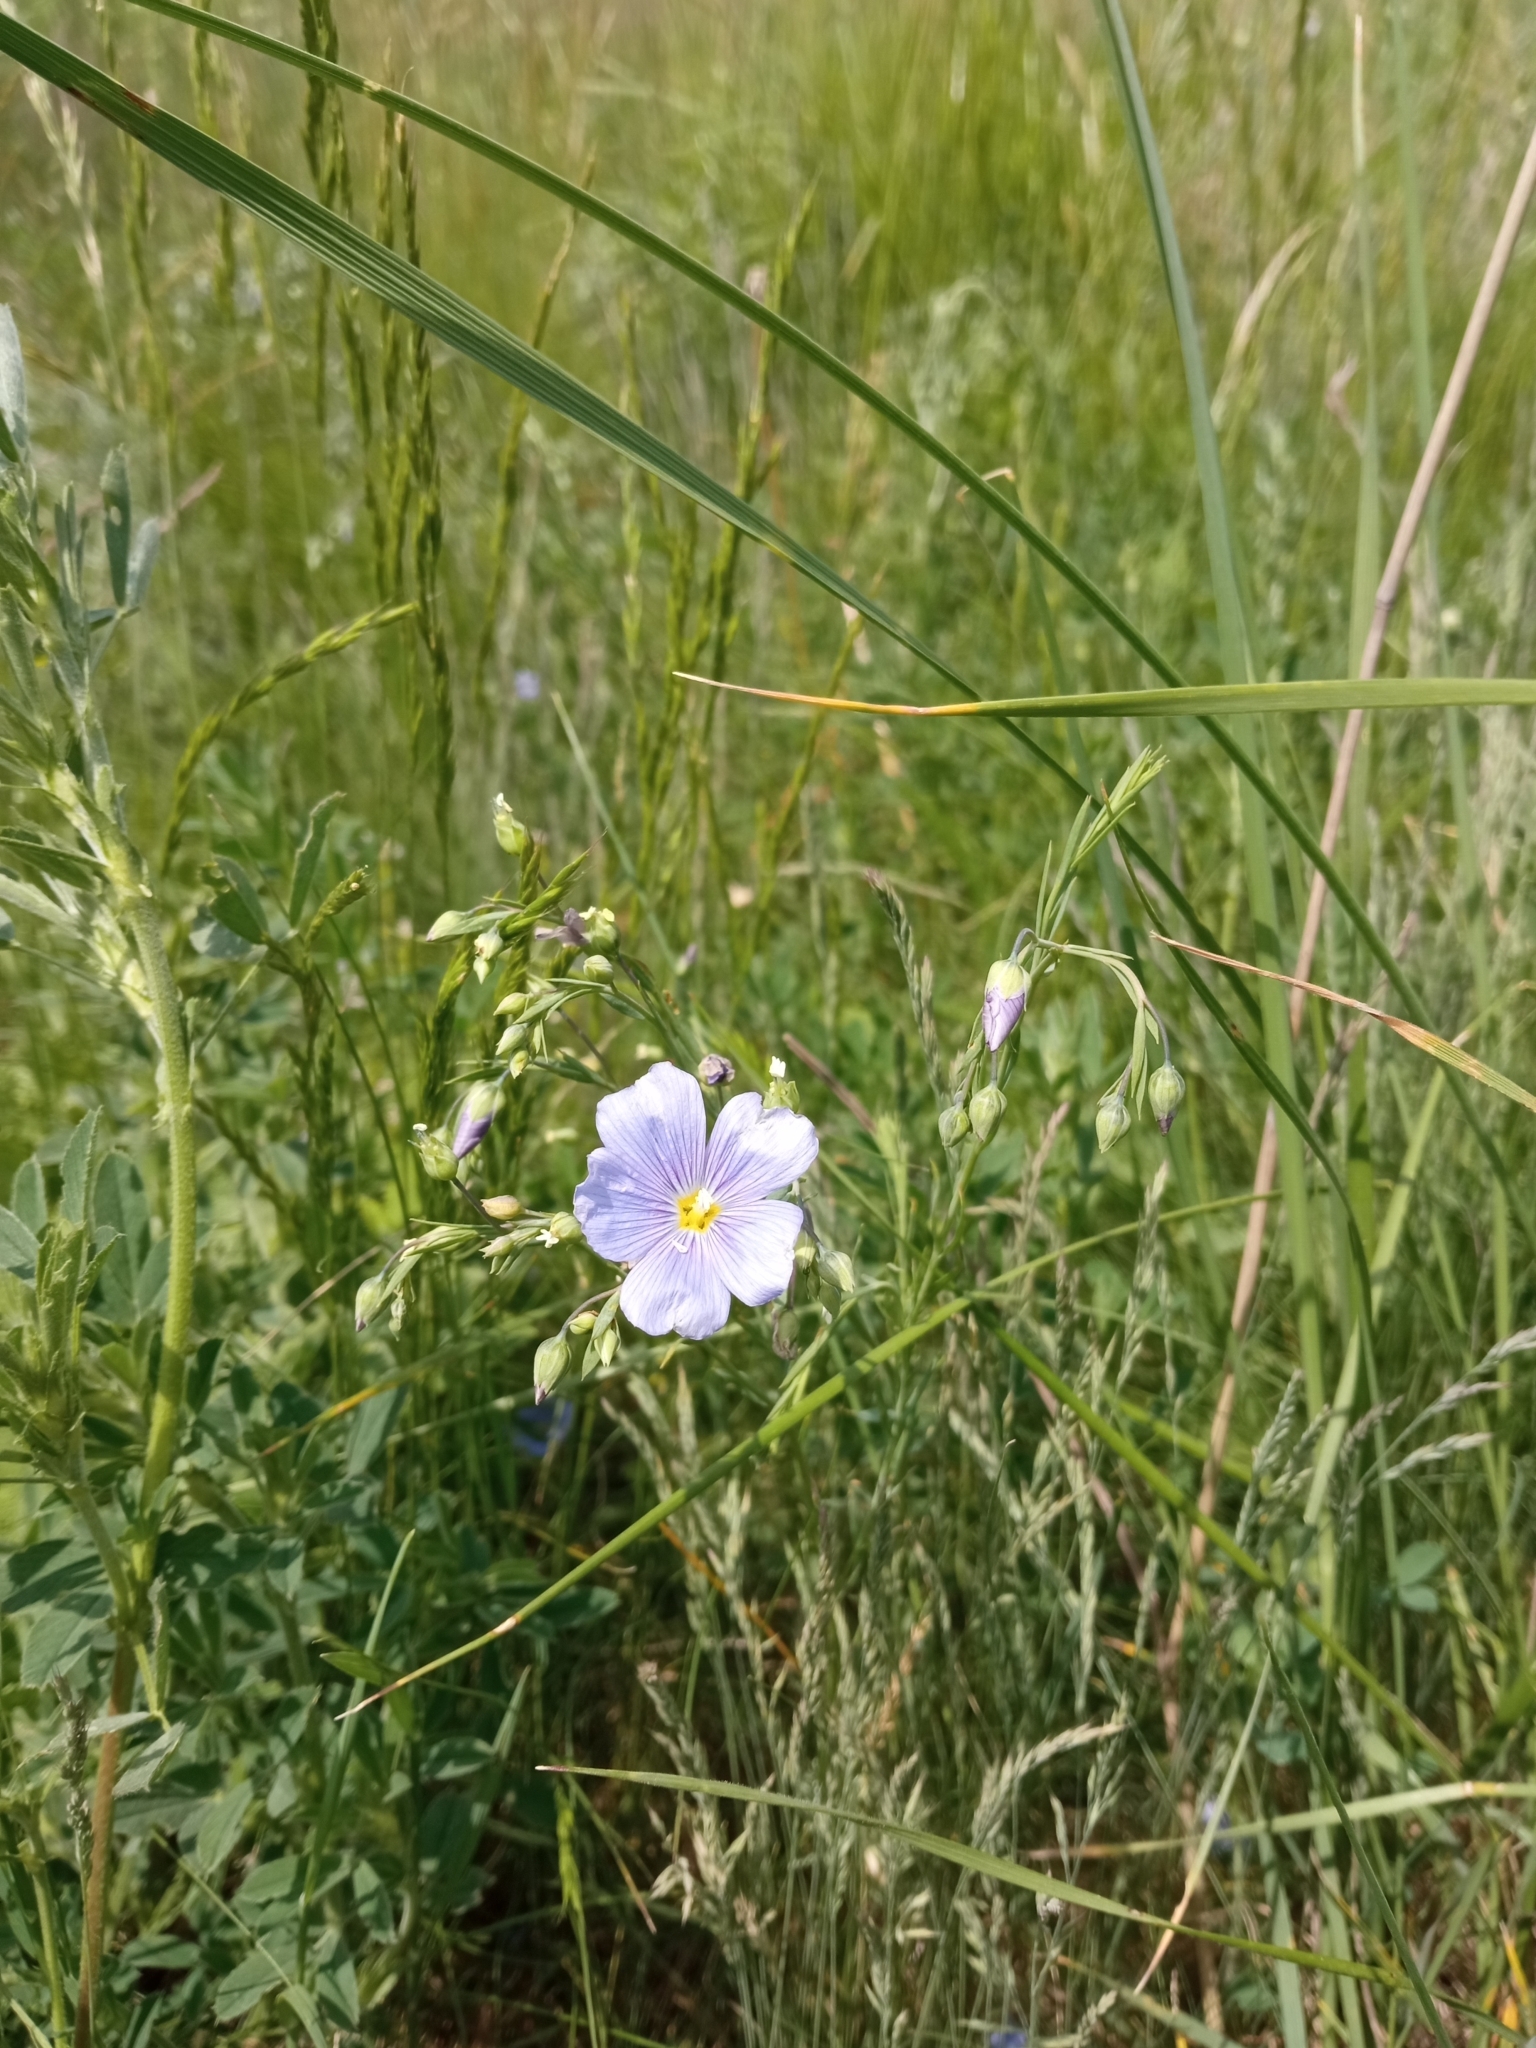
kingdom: Plantae
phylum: Tracheophyta
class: Magnoliopsida
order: Malpighiales
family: Linaceae
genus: Linum
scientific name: Linum austriacum
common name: Austrian flax
